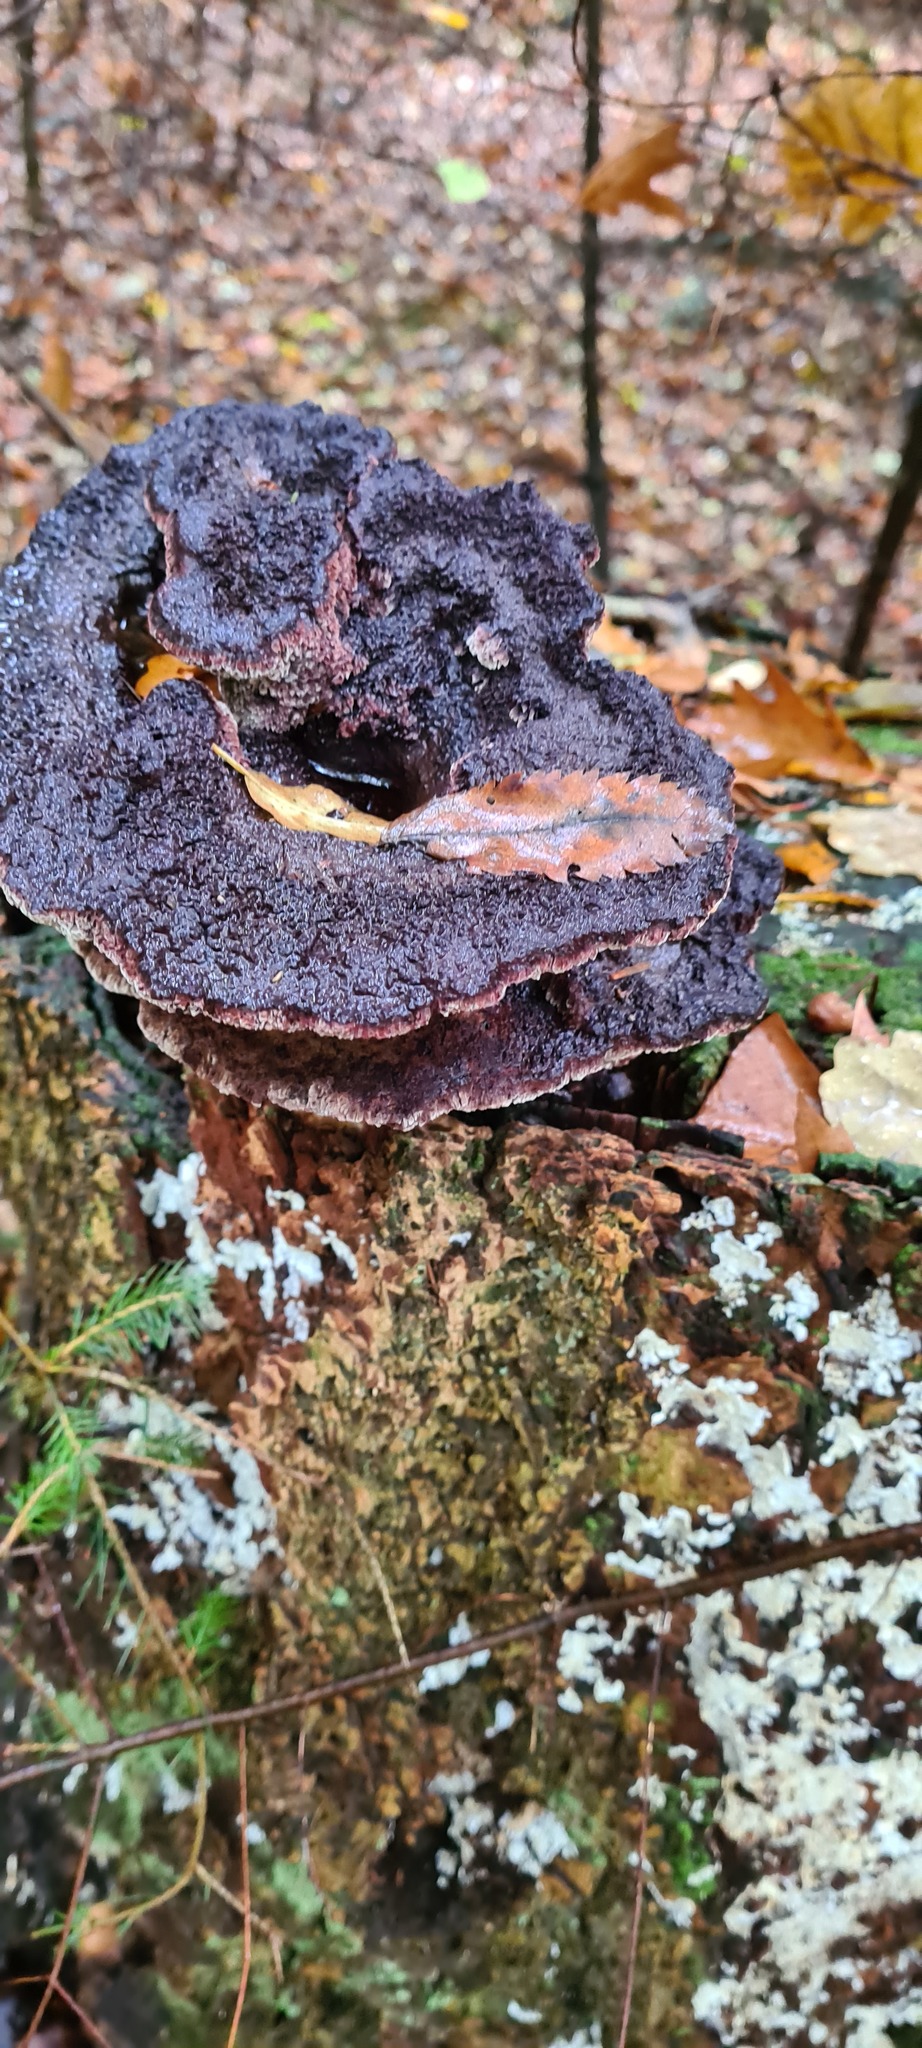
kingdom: Fungi
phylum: Basidiomycota
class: Agaricomycetes
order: Polyporales
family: Laetiporaceae
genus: Phaeolus
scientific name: Phaeolus schweinitzii
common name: Dyer's mazegill
